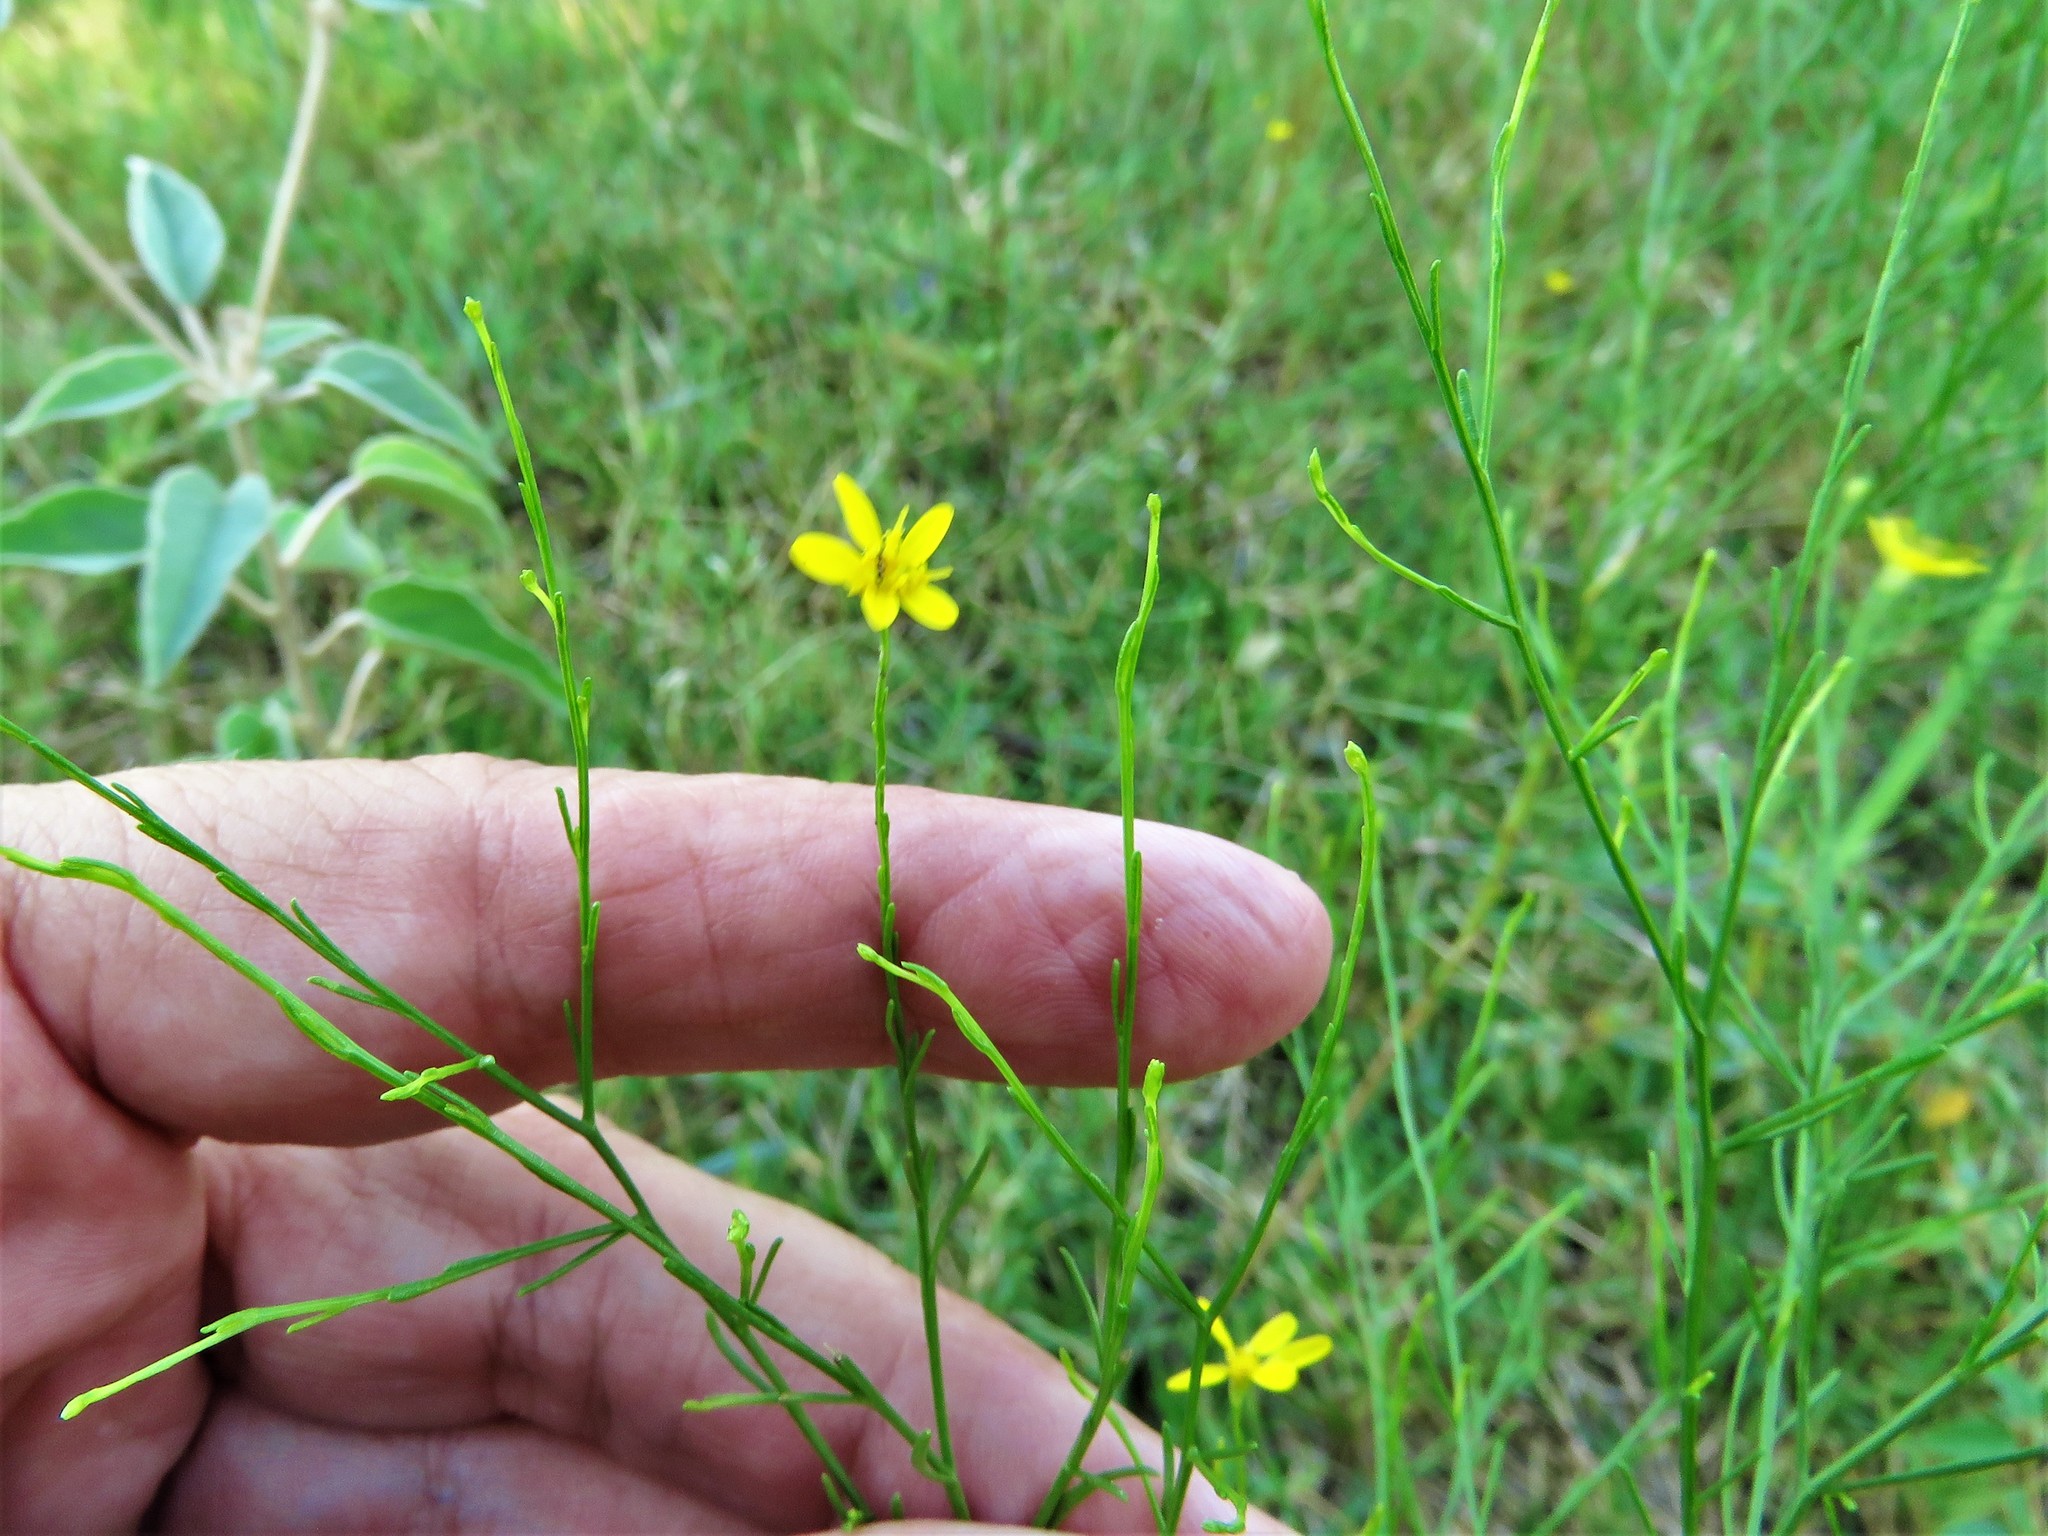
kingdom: Plantae
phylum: Tracheophyta
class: Magnoliopsida
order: Asterales
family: Asteraceae
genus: Gutierrezia
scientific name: Gutierrezia texana
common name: Texas snakeweed
